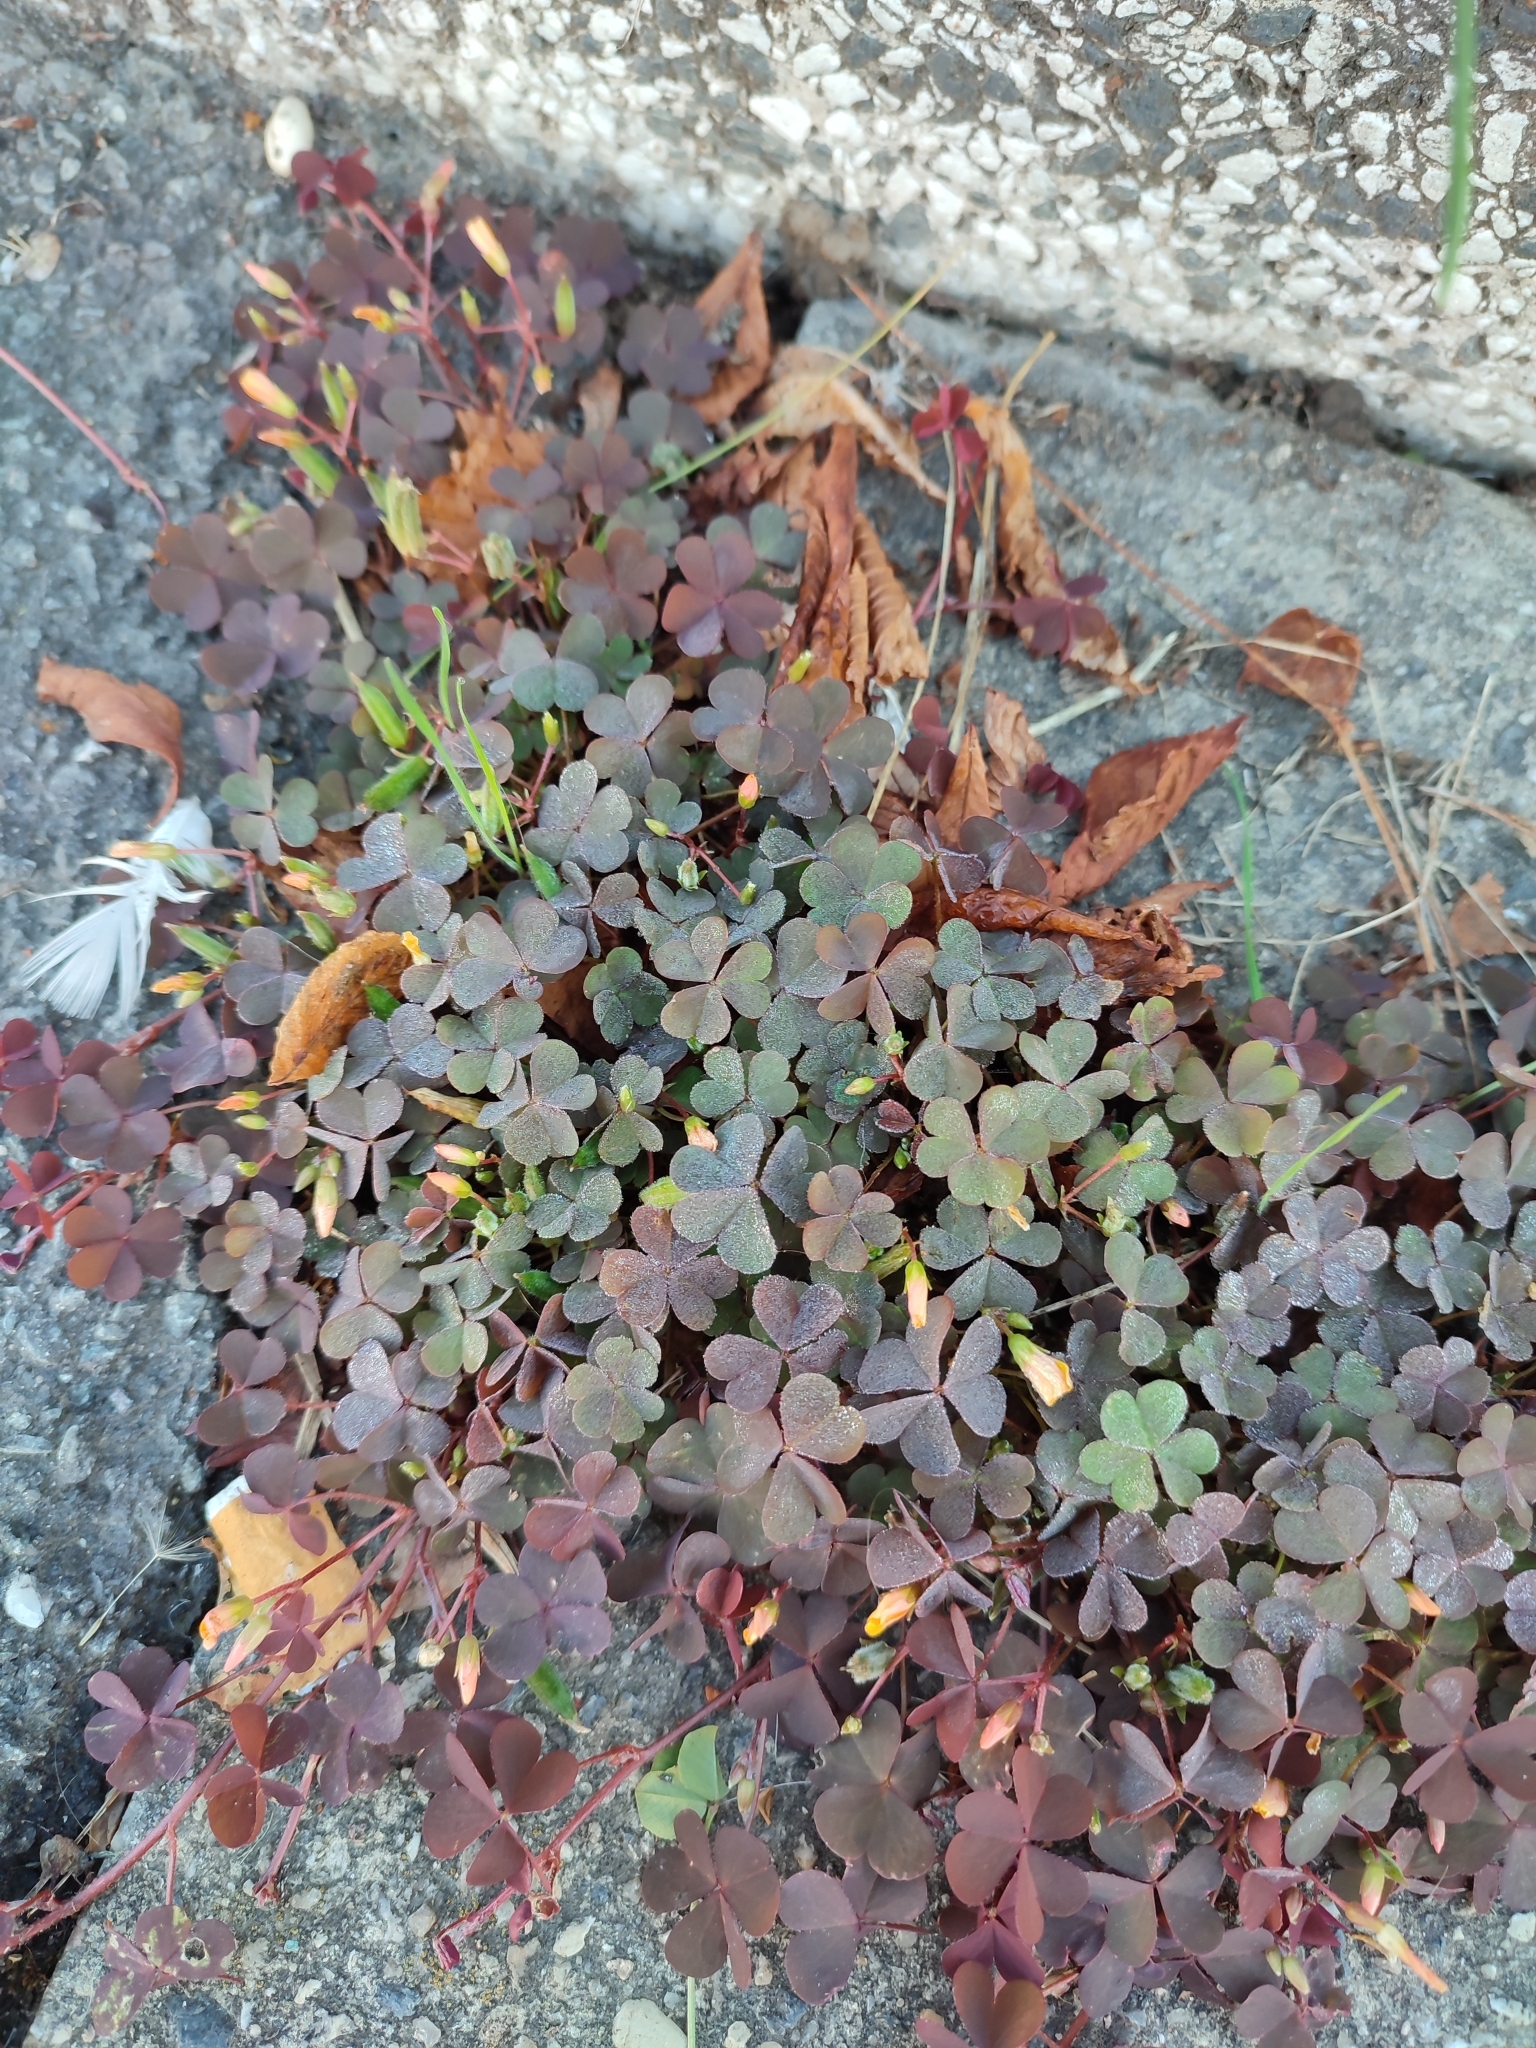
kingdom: Plantae
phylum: Tracheophyta
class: Magnoliopsida
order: Oxalidales
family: Oxalidaceae
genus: Oxalis
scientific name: Oxalis corniculata
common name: Procumbent yellow-sorrel
